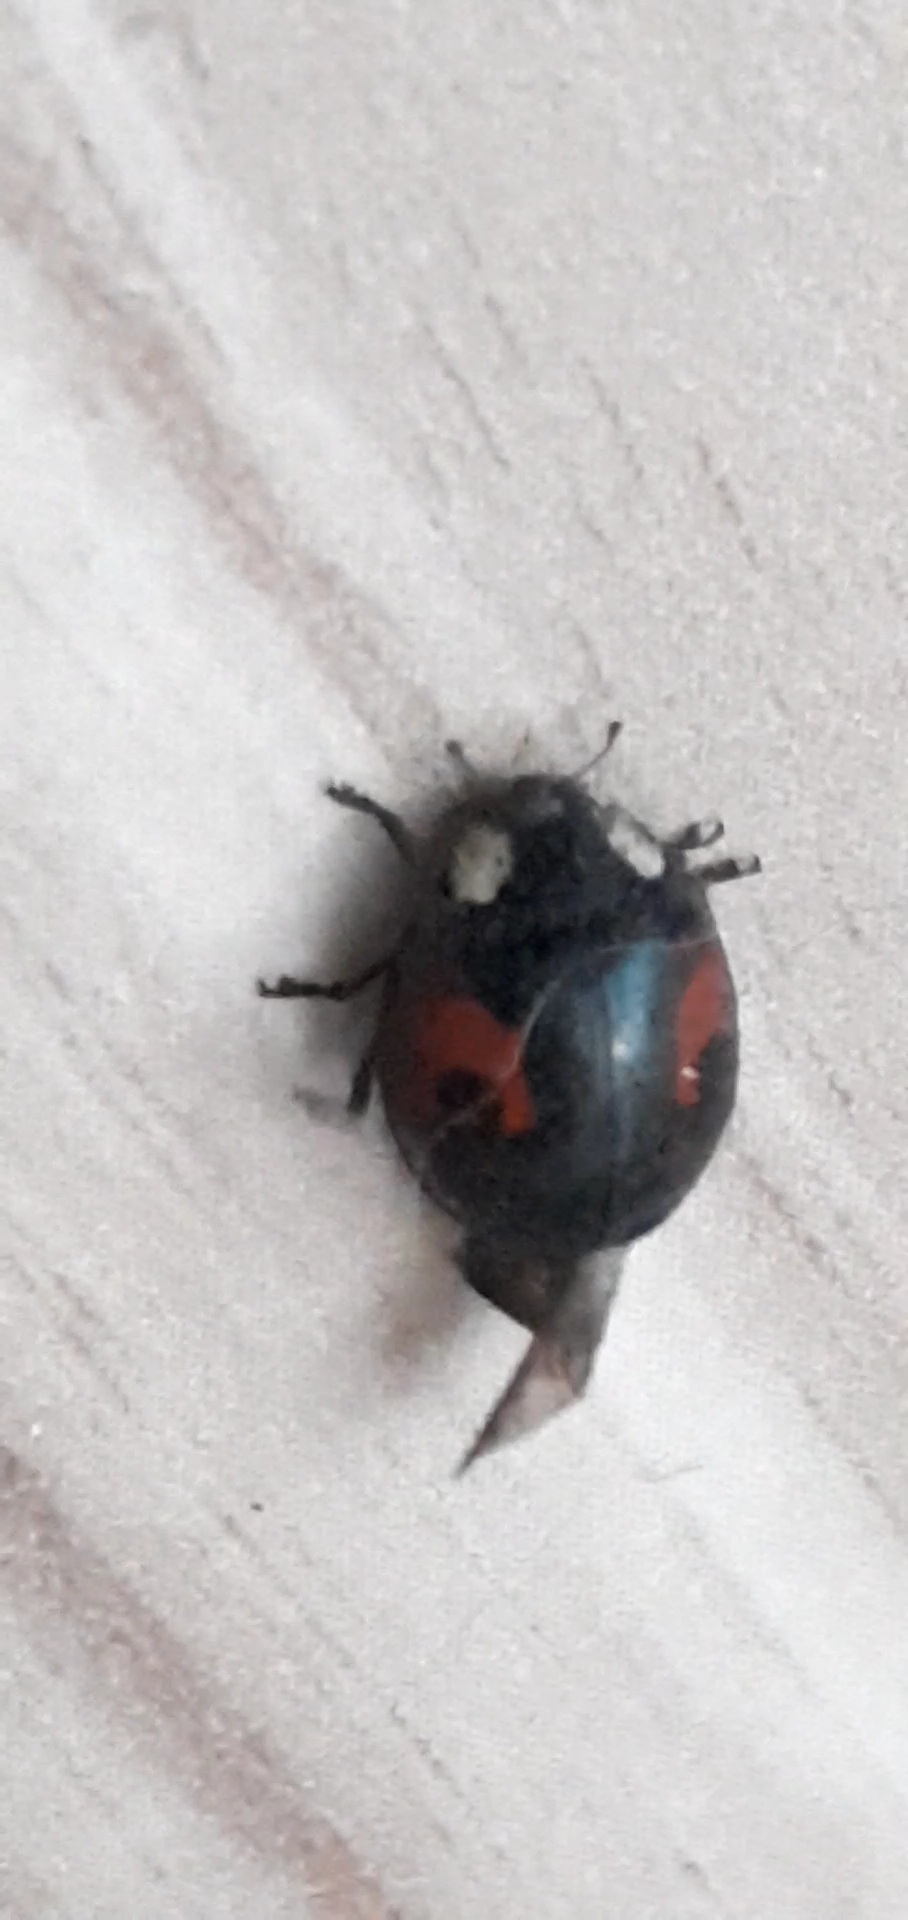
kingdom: Animalia
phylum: Arthropoda
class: Insecta
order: Coleoptera
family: Coccinellidae
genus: Harmonia
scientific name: Harmonia axyridis
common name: Harlequin ladybird
